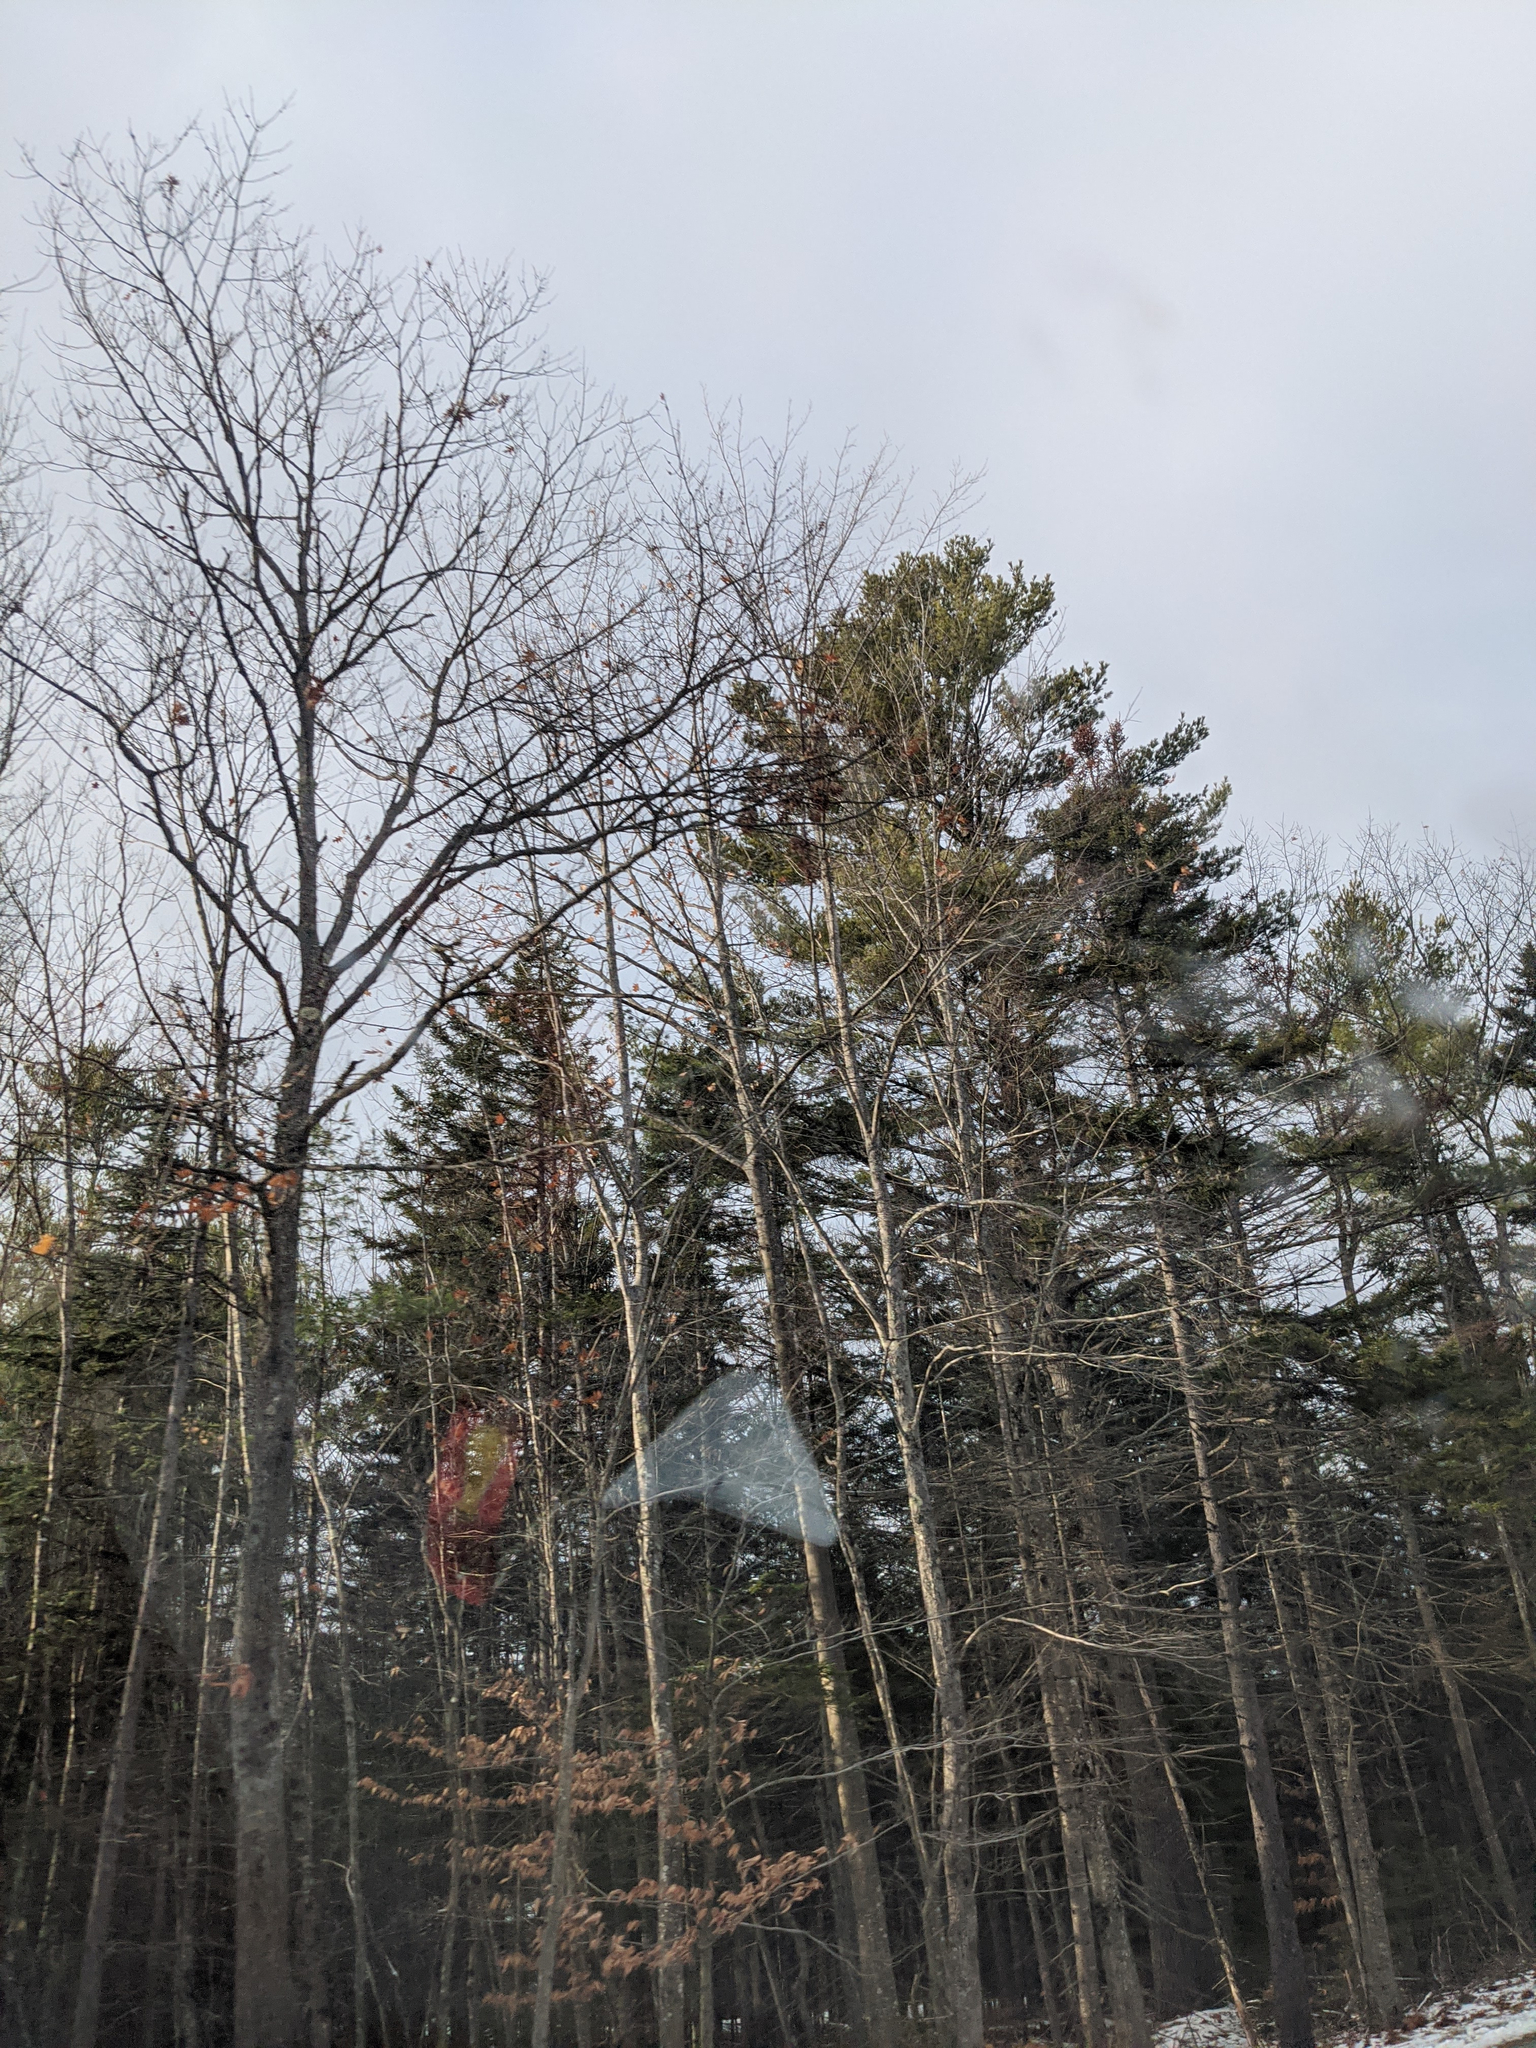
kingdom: Plantae
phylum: Tracheophyta
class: Pinopsida
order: Pinales
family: Pinaceae
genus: Pinus
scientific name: Pinus strobus
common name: Weymouth pine
